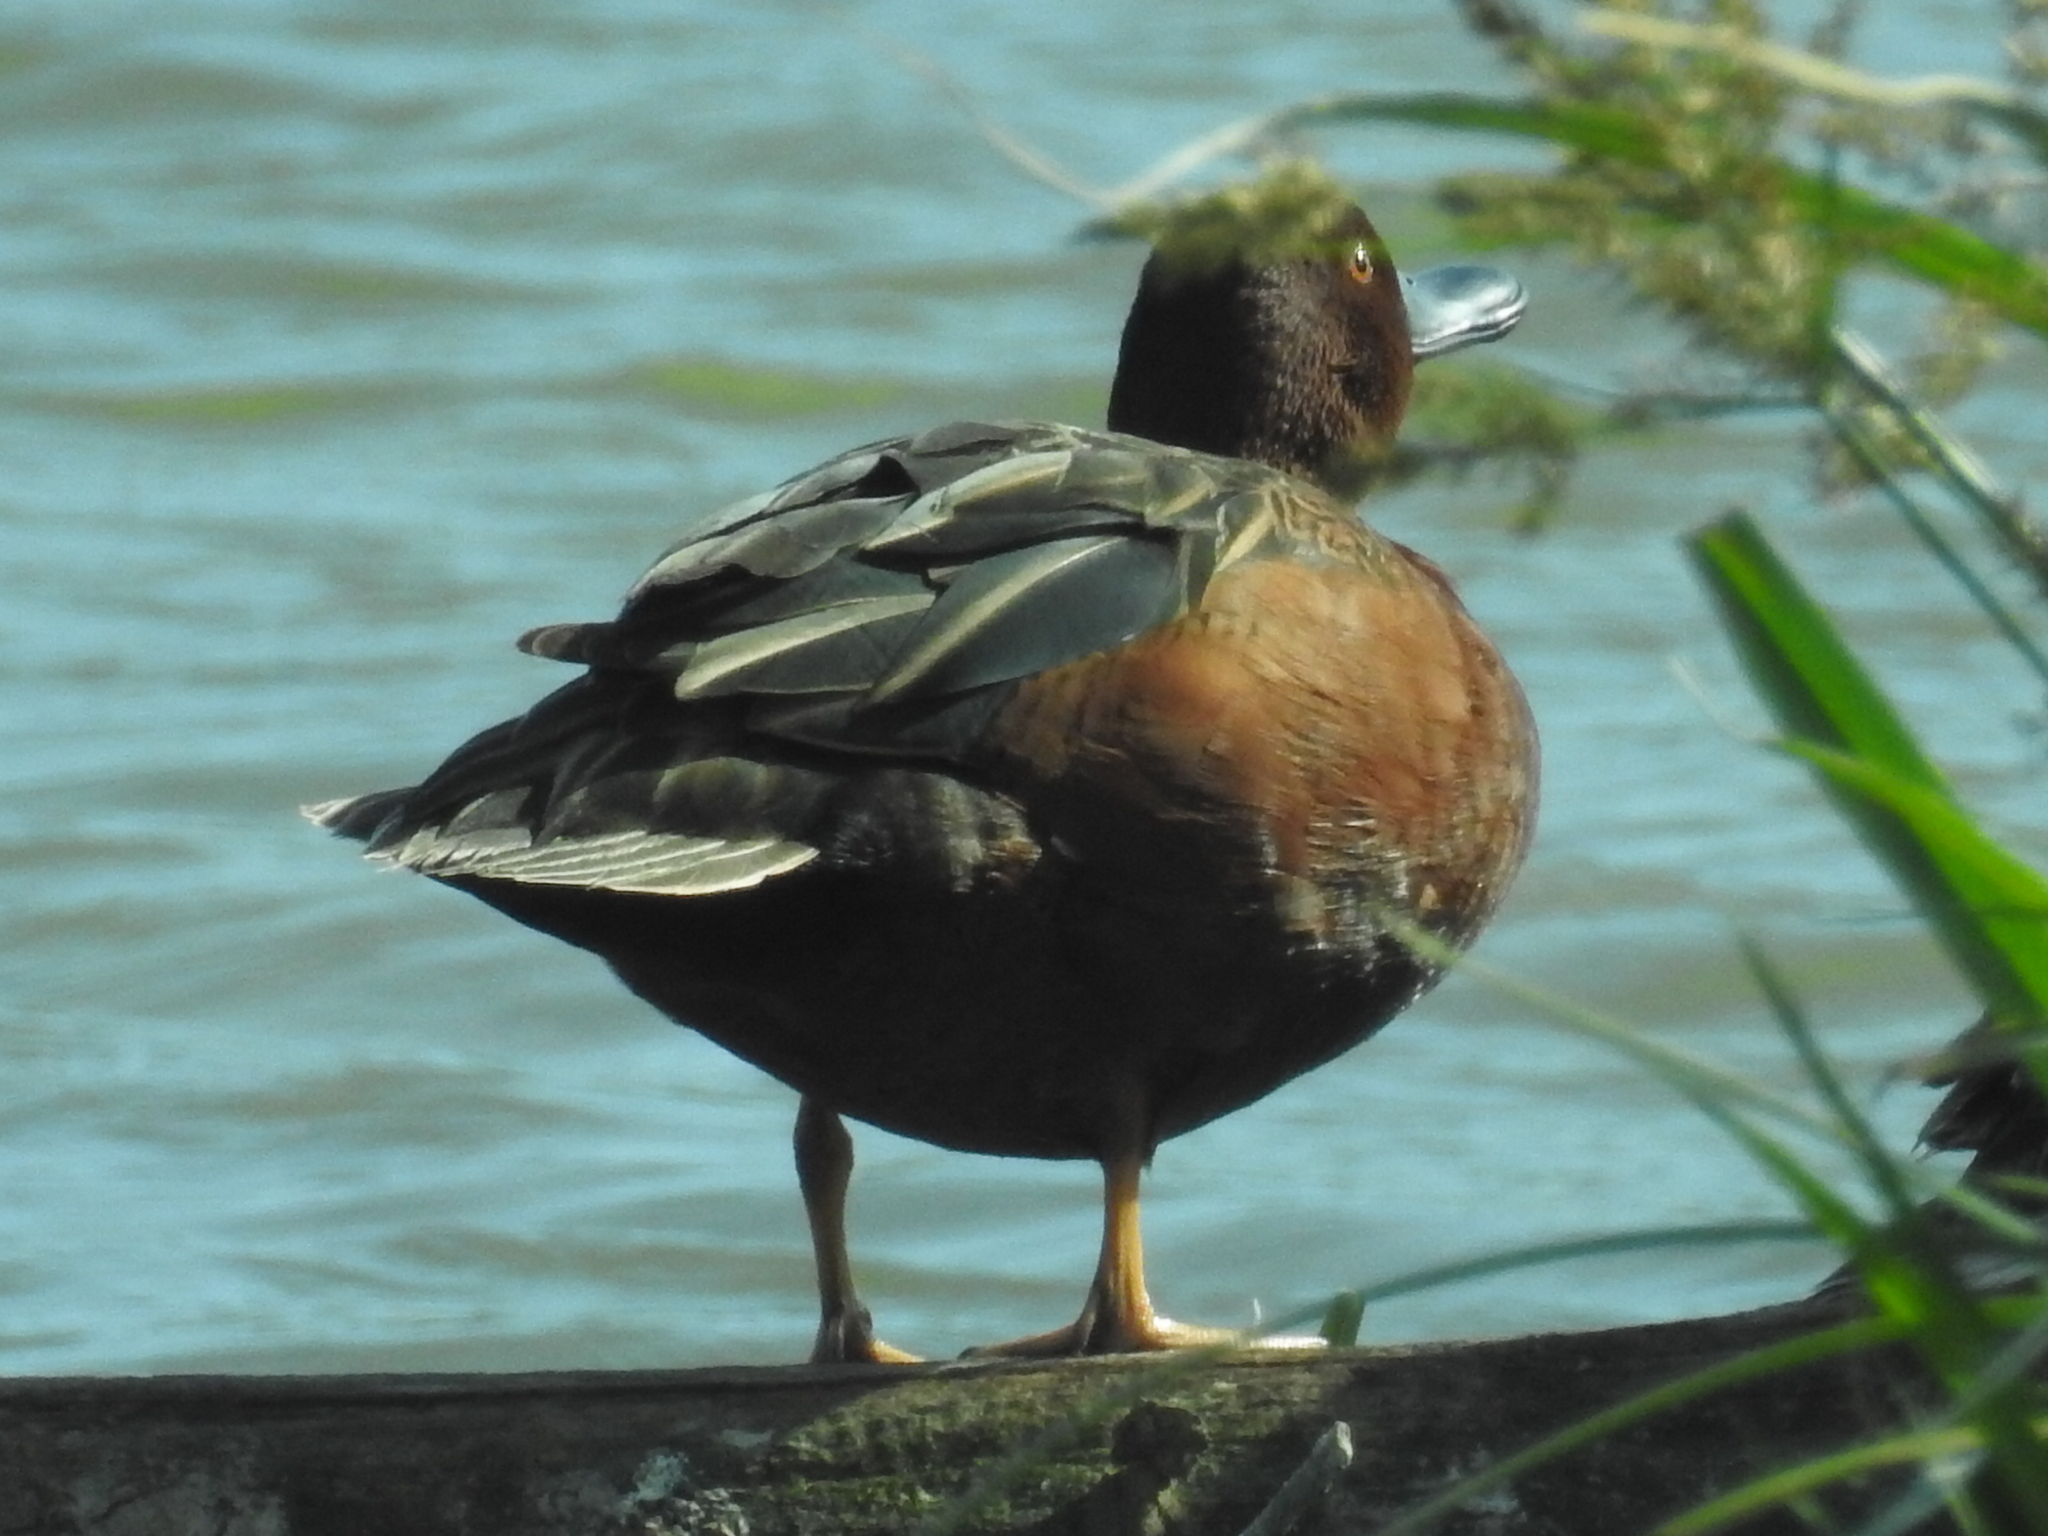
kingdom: Animalia
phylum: Chordata
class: Aves
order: Anseriformes
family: Anatidae
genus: Spatula
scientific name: Spatula cyanoptera
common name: Cinnamon teal
